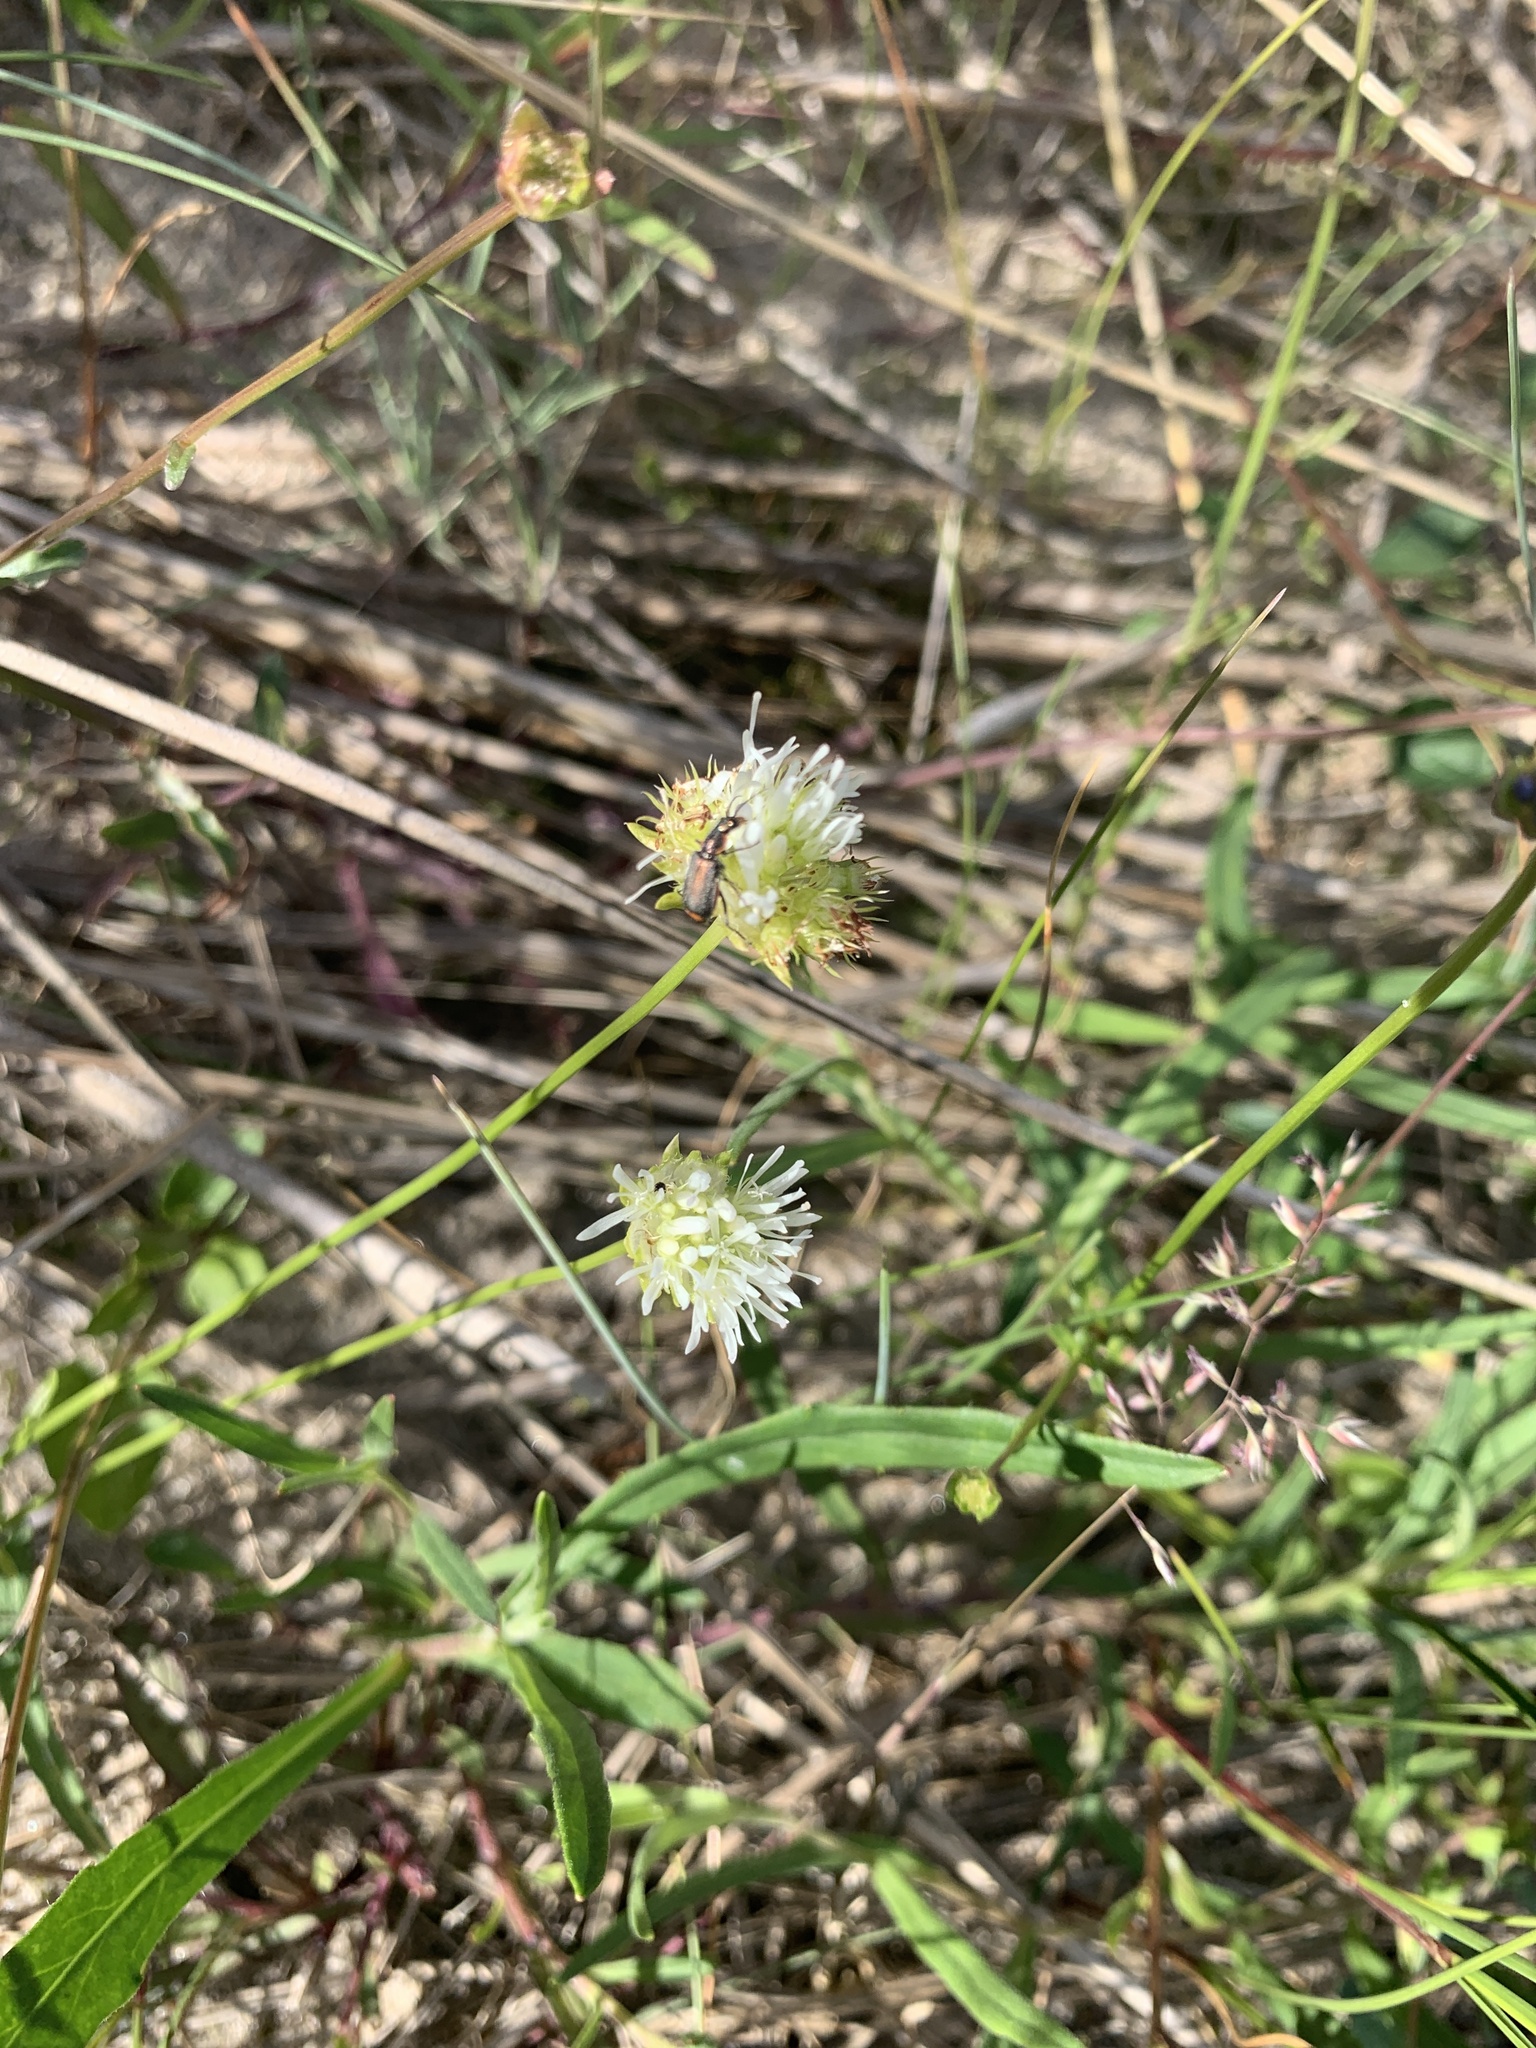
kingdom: Plantae
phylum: Tracheophyta
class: Magnoliopsida
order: Asterales
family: Campanulaceae
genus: Jasione
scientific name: Jasione montana
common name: Sheep's-bit
